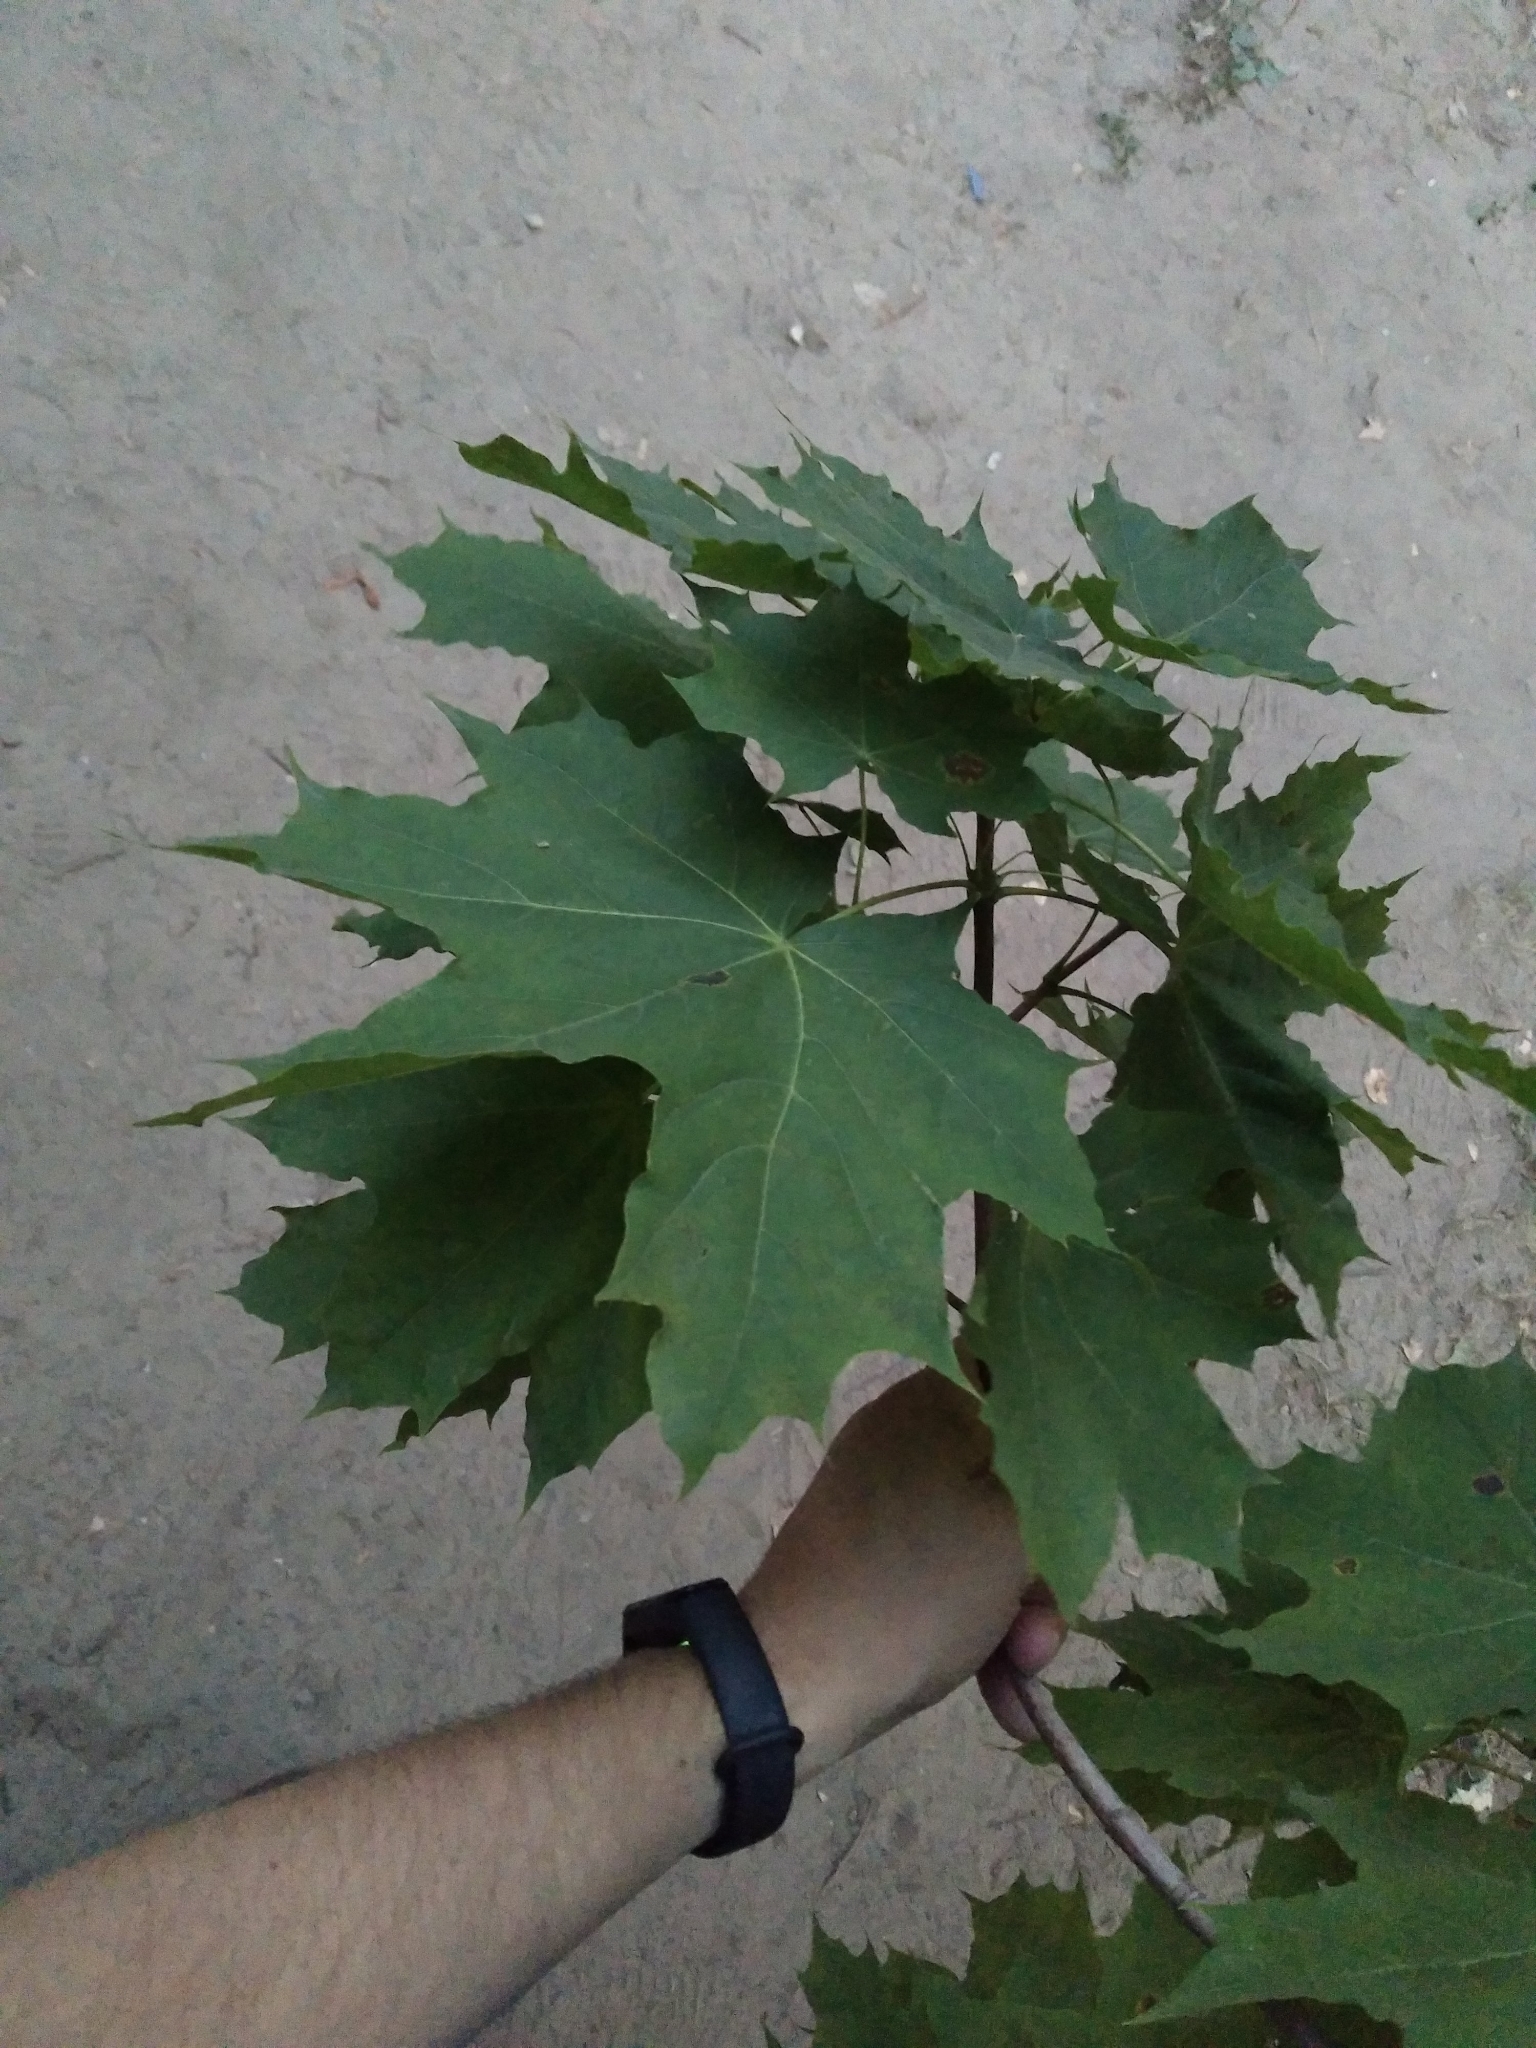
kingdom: Plantae
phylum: Tracheophyta
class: Magnoliopsida
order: Sapindales
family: Sapindaceae
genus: Acer
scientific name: Acer platanoides
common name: Norway maple
